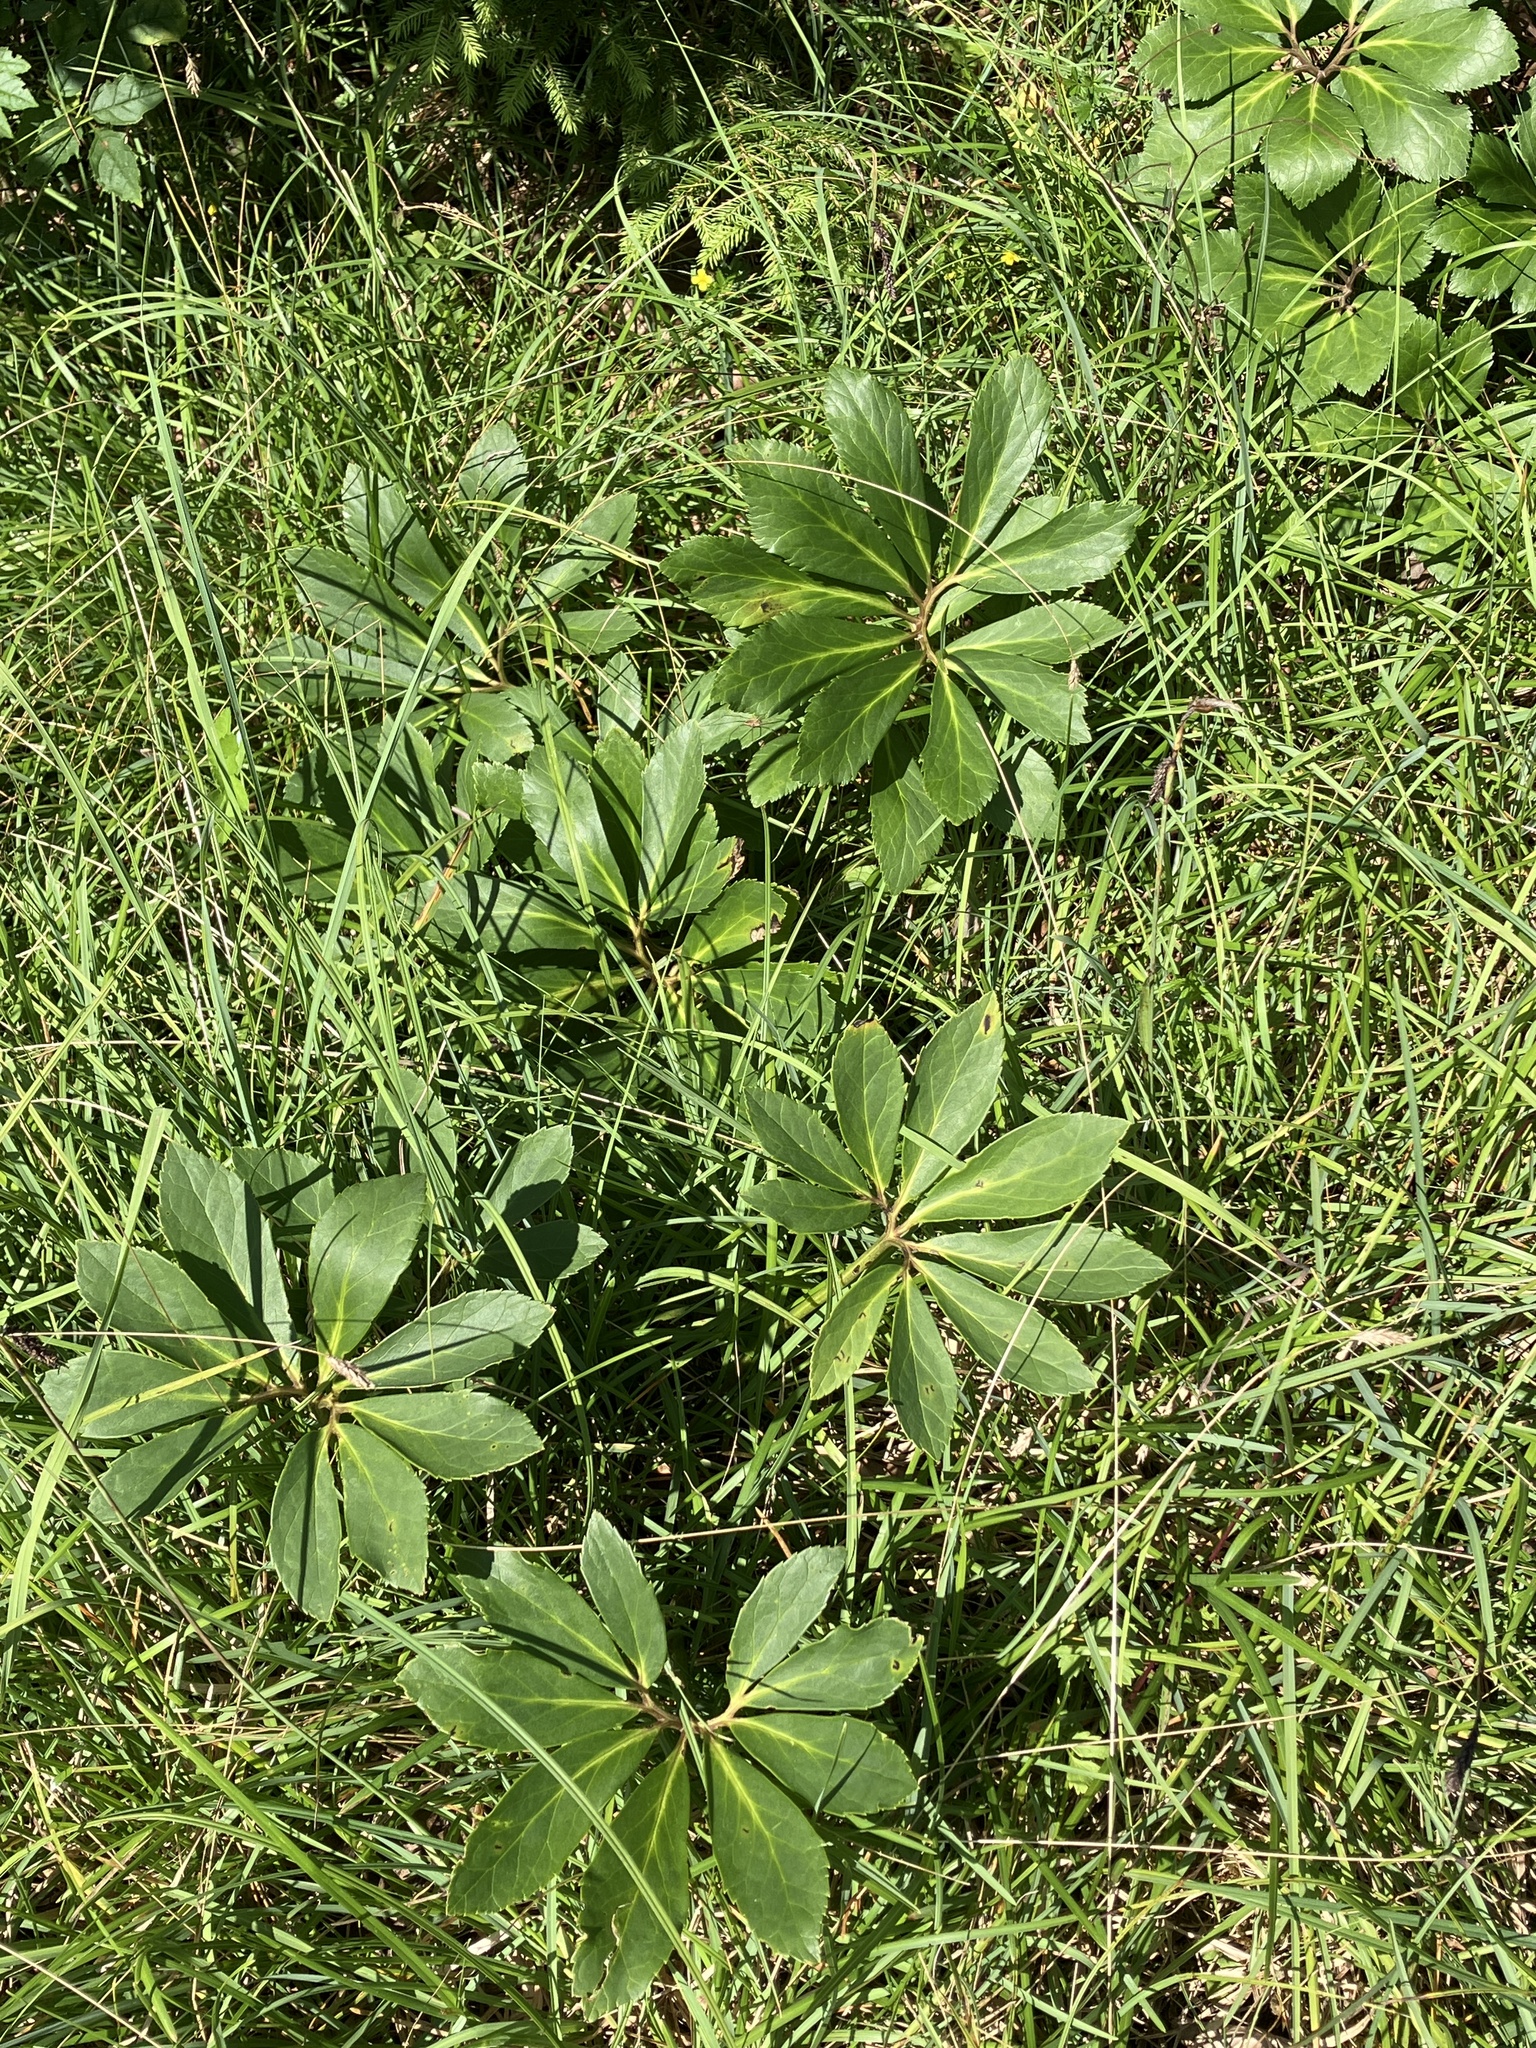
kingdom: Plantae
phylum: Tracheophyta
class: Magnoliopsida
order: Ranunculales
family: Ranunculaceae
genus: Helleborus
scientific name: Helleborus niger
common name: Black hellebore
